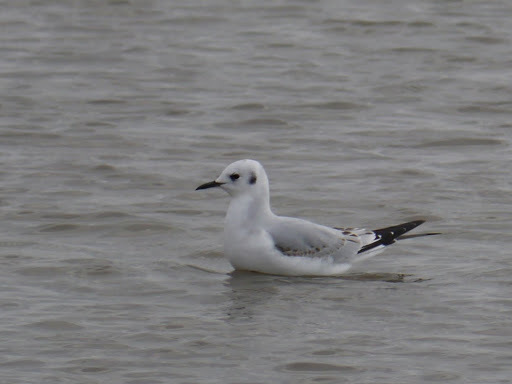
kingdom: Animalia
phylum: Chordata
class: Aves
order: Charadriiformes
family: Laridae
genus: Chroicocephalus
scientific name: Chroicocephalus philadelphia
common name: Bonaparte's gull
